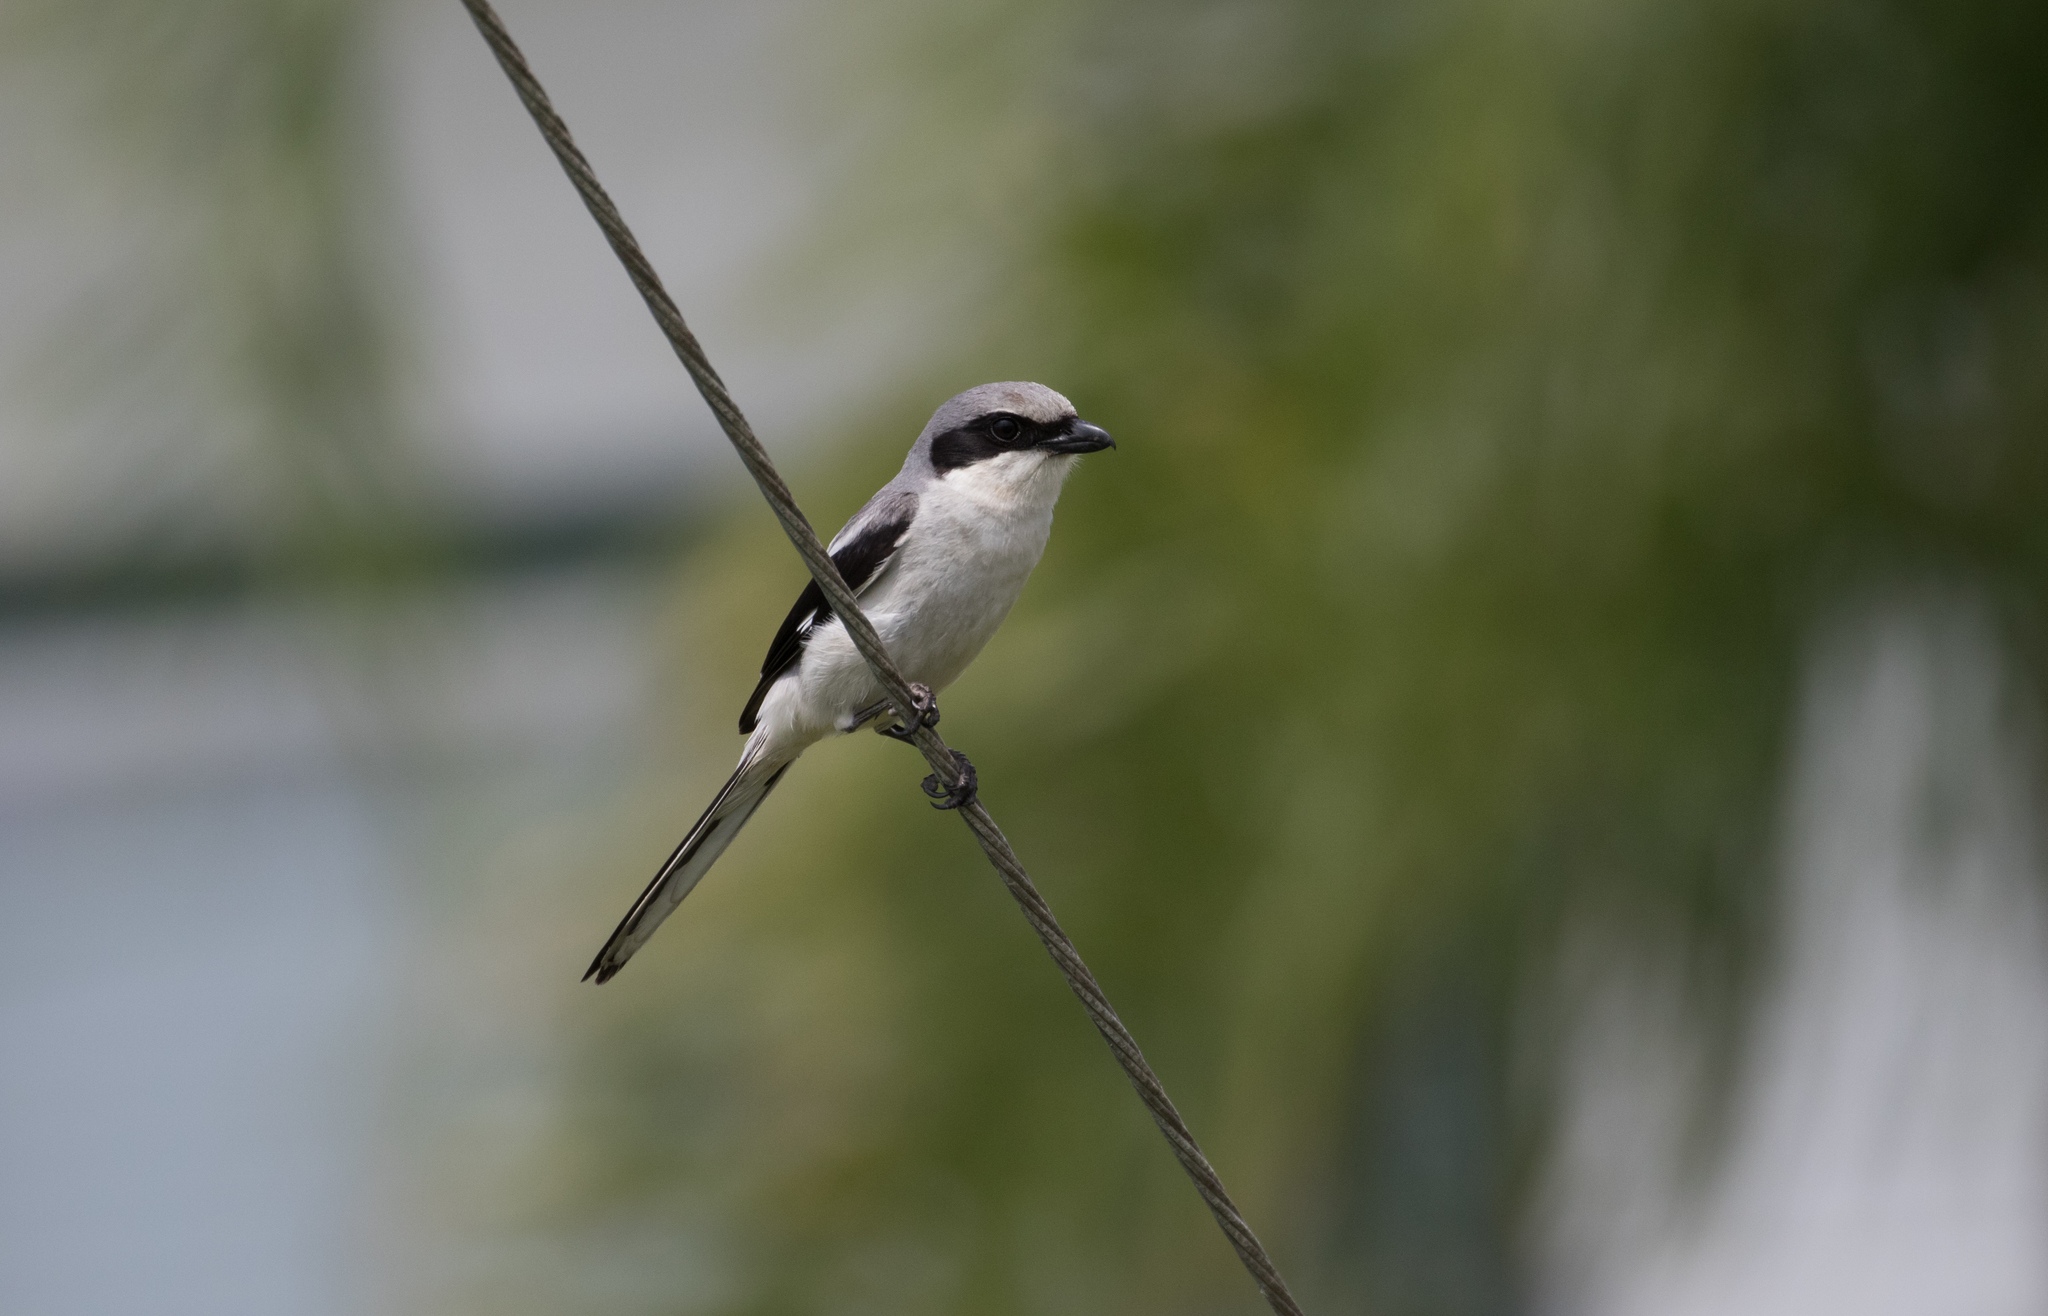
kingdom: Animalia
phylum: Chordata
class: Aves
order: Passeriformes
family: Laniidae
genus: Lanius
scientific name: Lanius ludovicianus
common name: Loggerhead shrike
